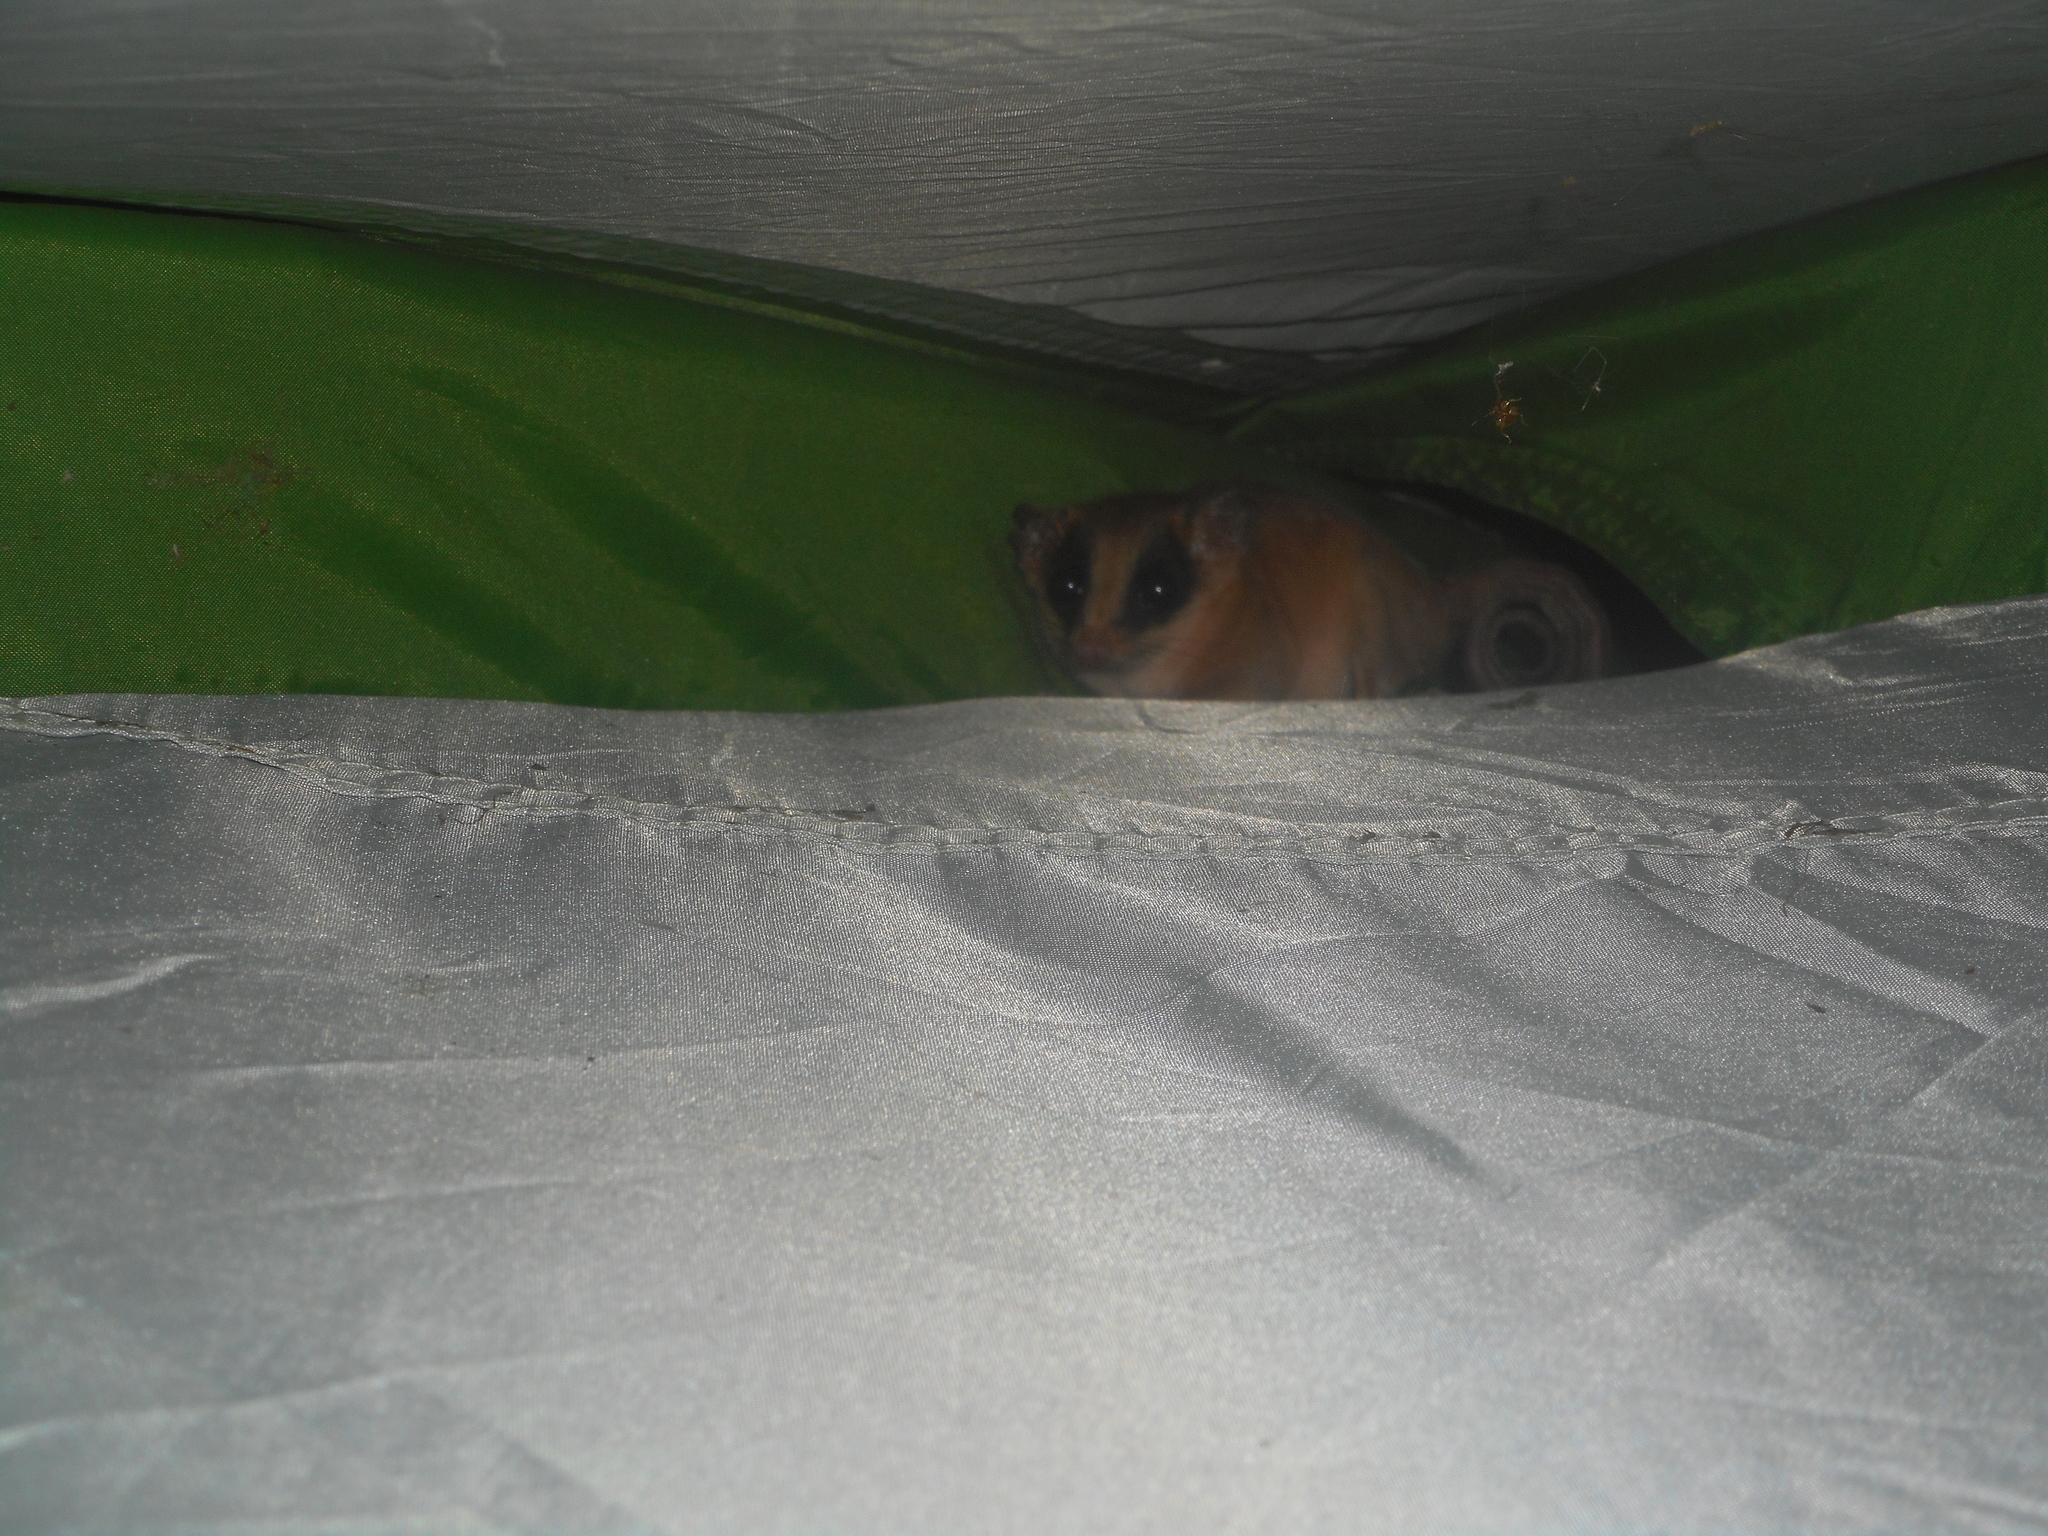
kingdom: Animalia
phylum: Chordata
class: Mammalia
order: Didelphimorphia
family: Didelphidae
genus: Marmosa
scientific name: Marmosa mexicana
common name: Mexican mouse opossum
